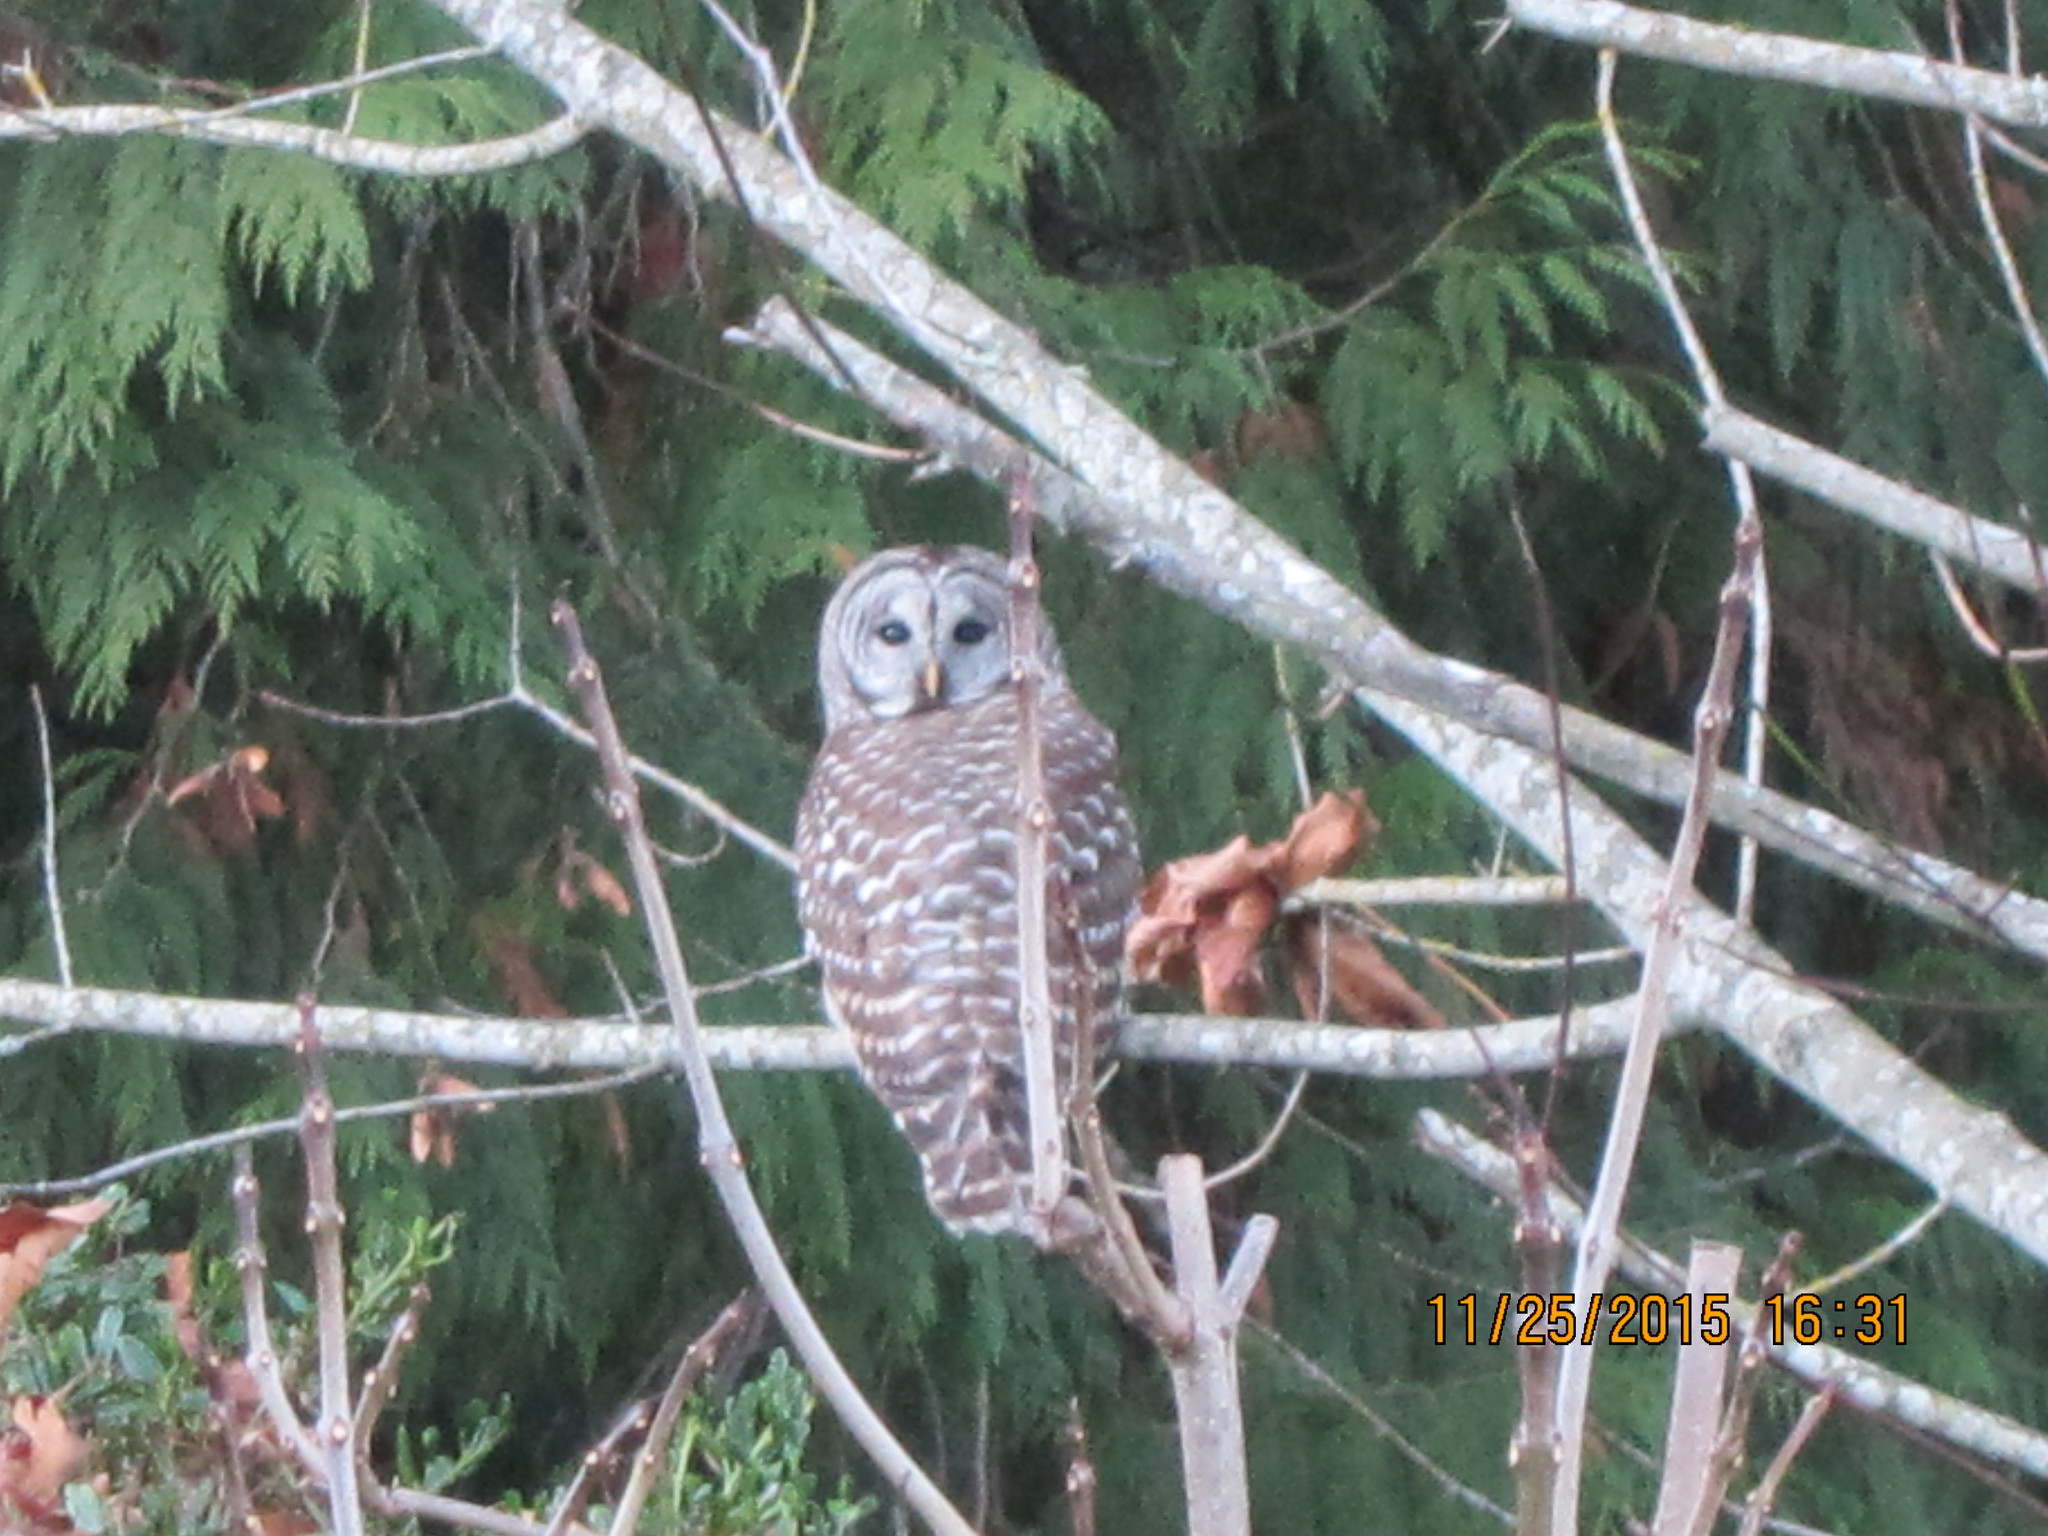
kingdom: Animalia
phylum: Chordata
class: Aves
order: Strigiformes
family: Strigidae
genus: Strix
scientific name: Strix varia
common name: Barred owl
